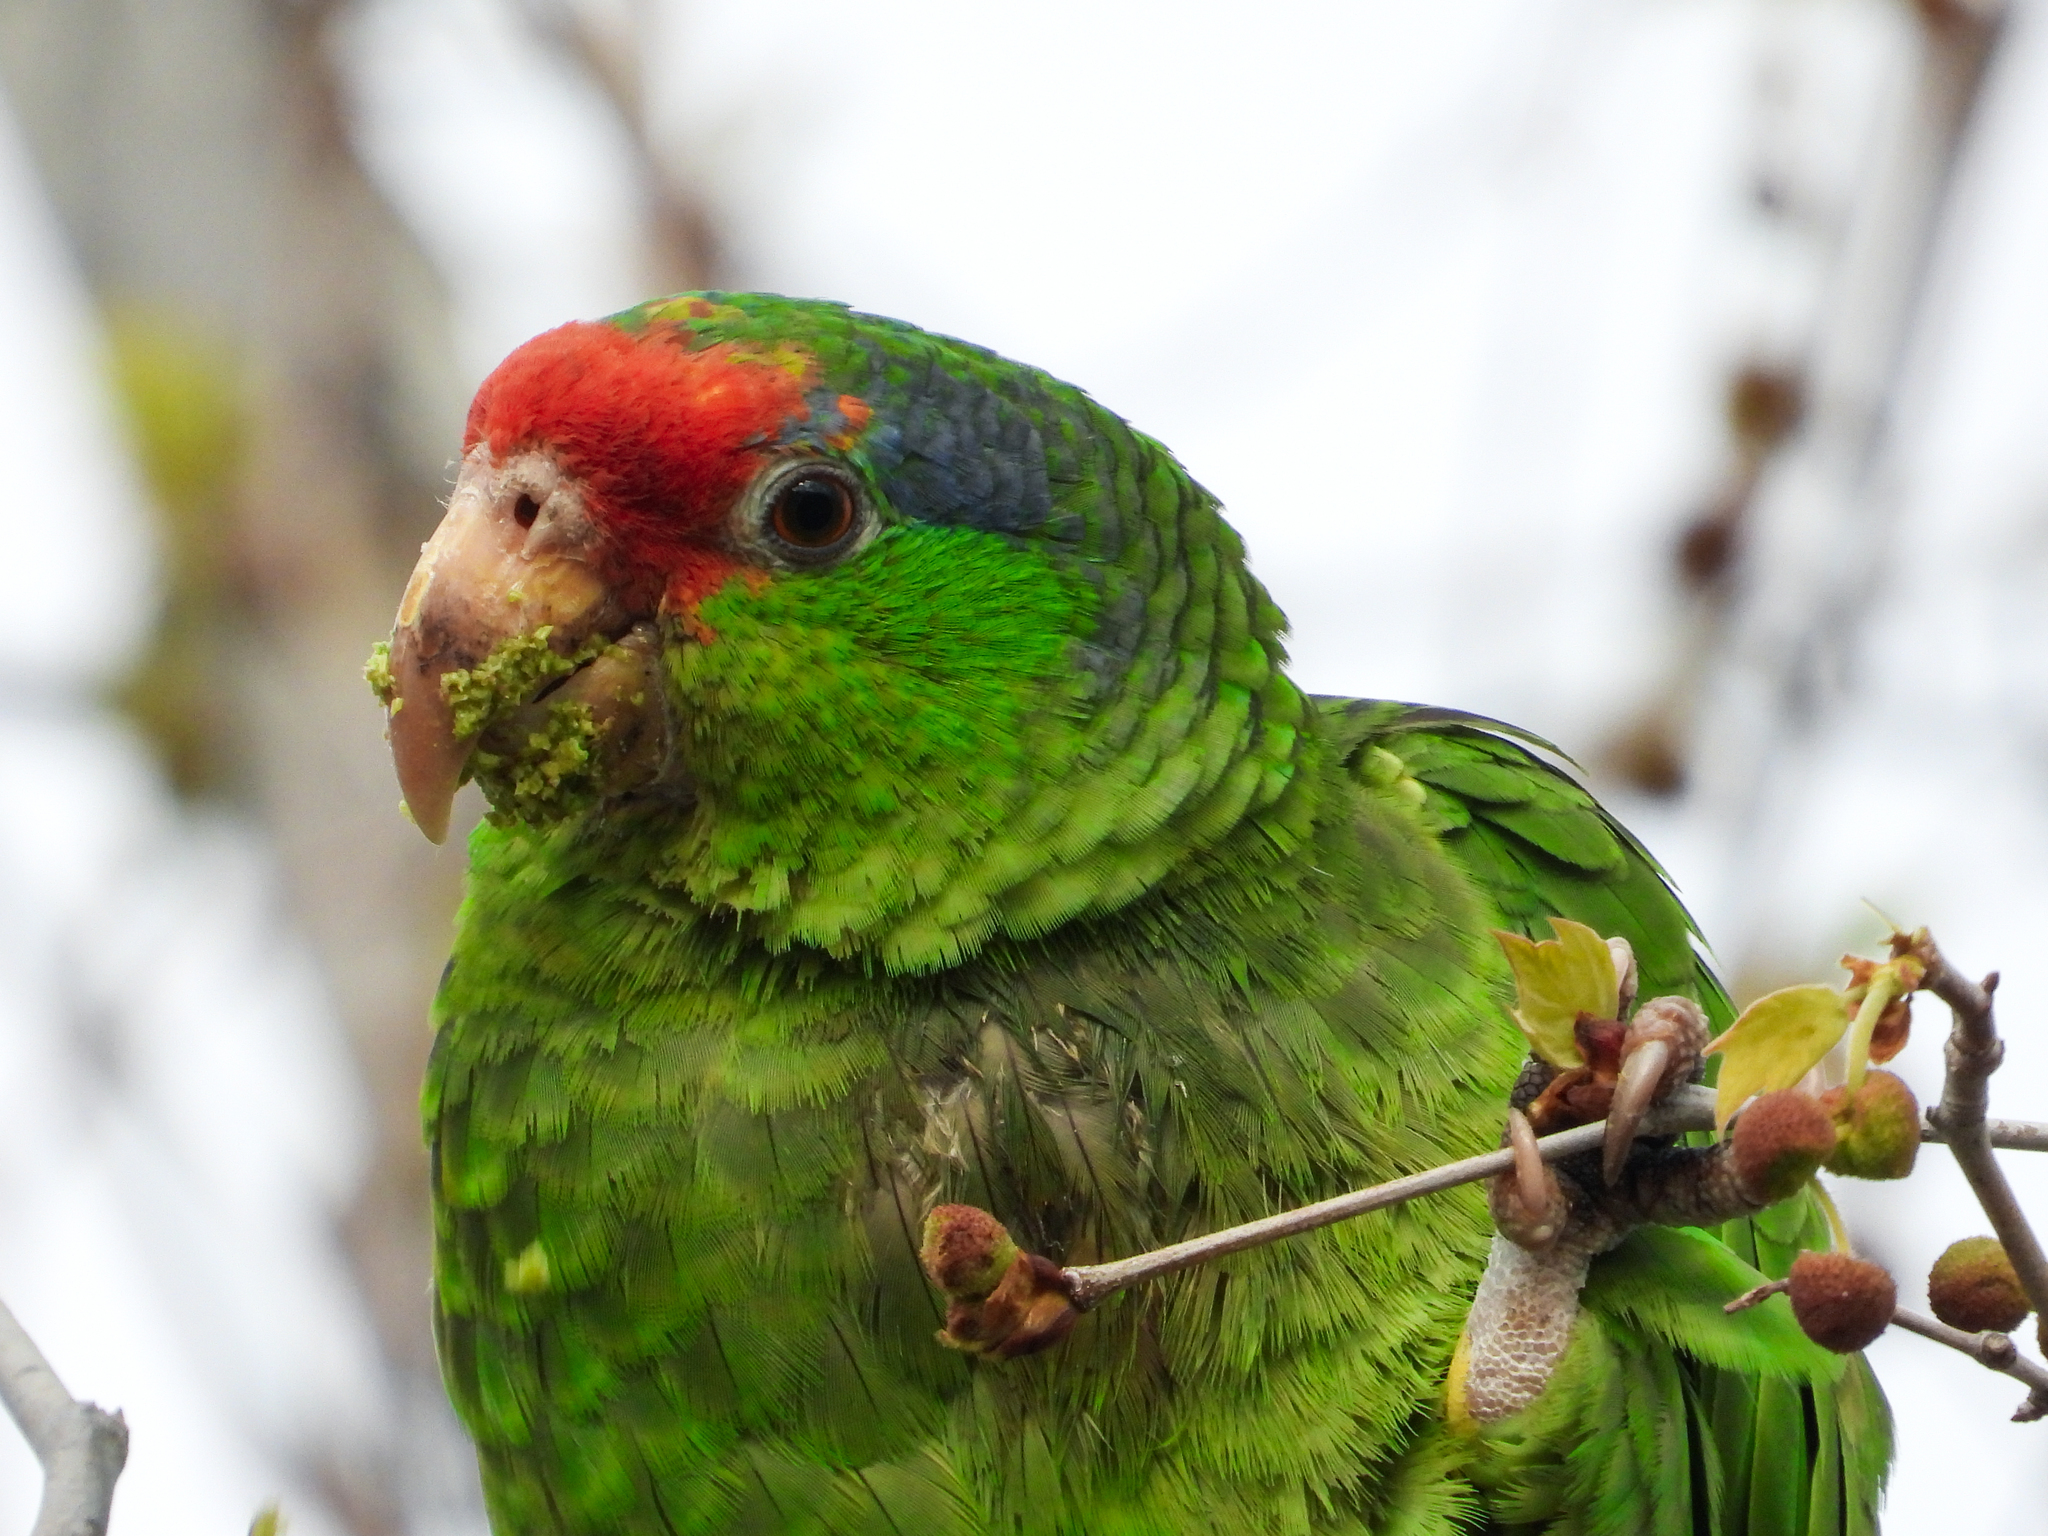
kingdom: Animalia
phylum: Chordata
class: Aves
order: Psittaciformes
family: Psittacidae
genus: Amazona
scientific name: Amazona viridigenalis
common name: Red-crowned amazon
